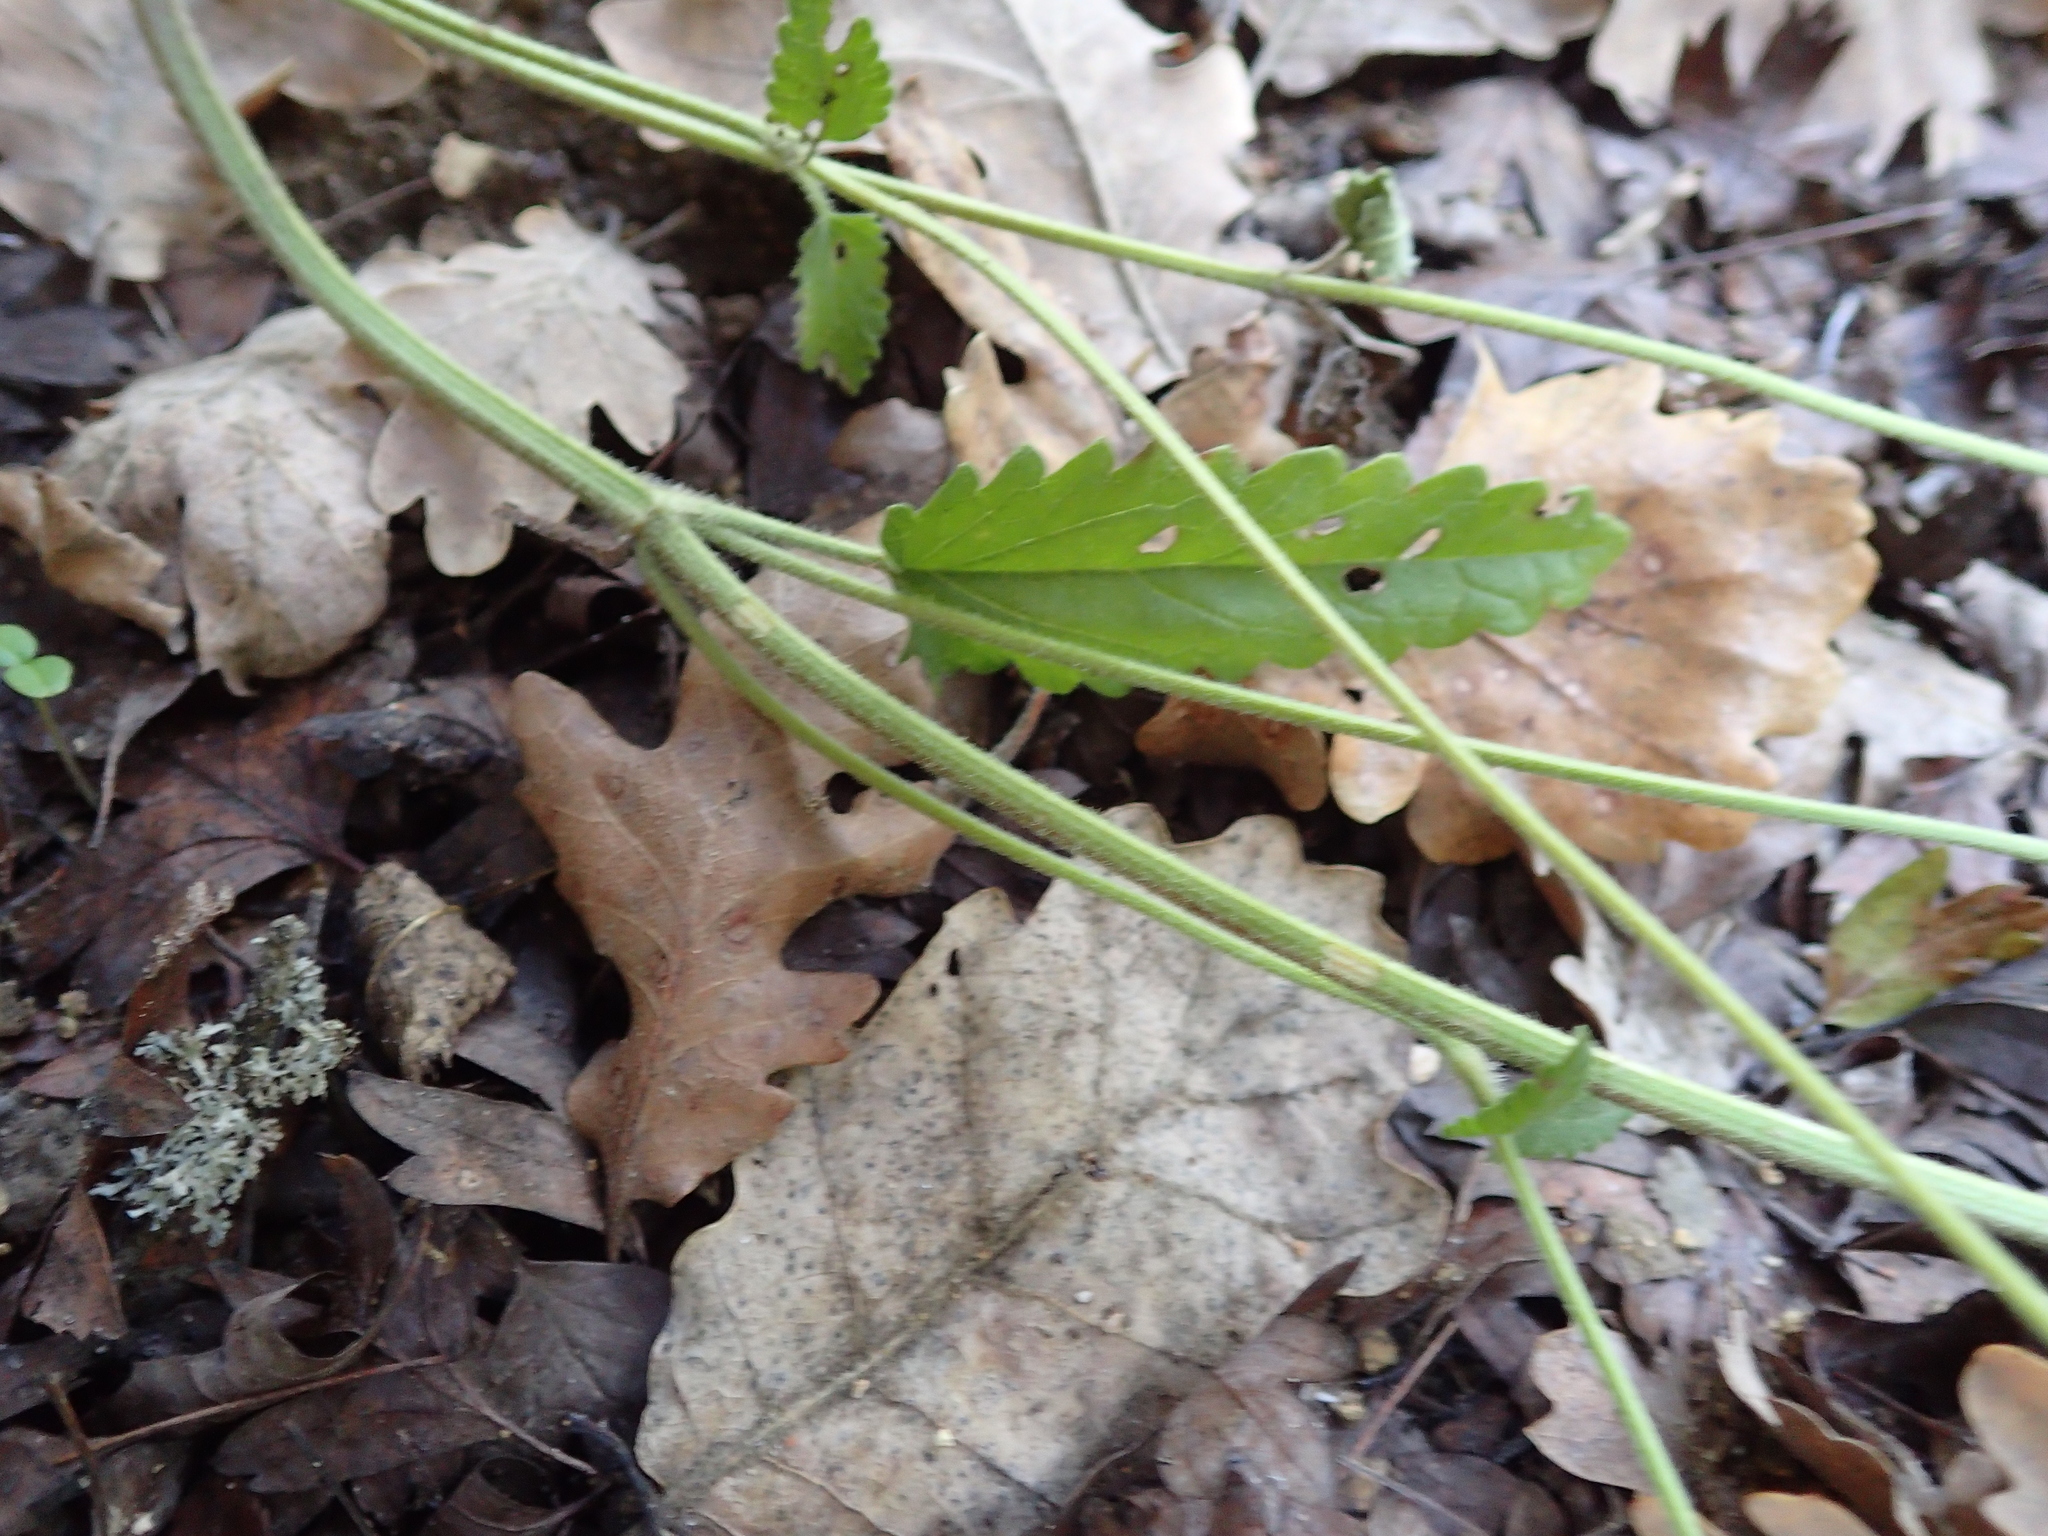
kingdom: Plantae
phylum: Tracheophyta
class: Magnoliopsida
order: Lamiales
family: Lamiaceae
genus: Betonica
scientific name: Betonica officinalis
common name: Bishop's-wort
